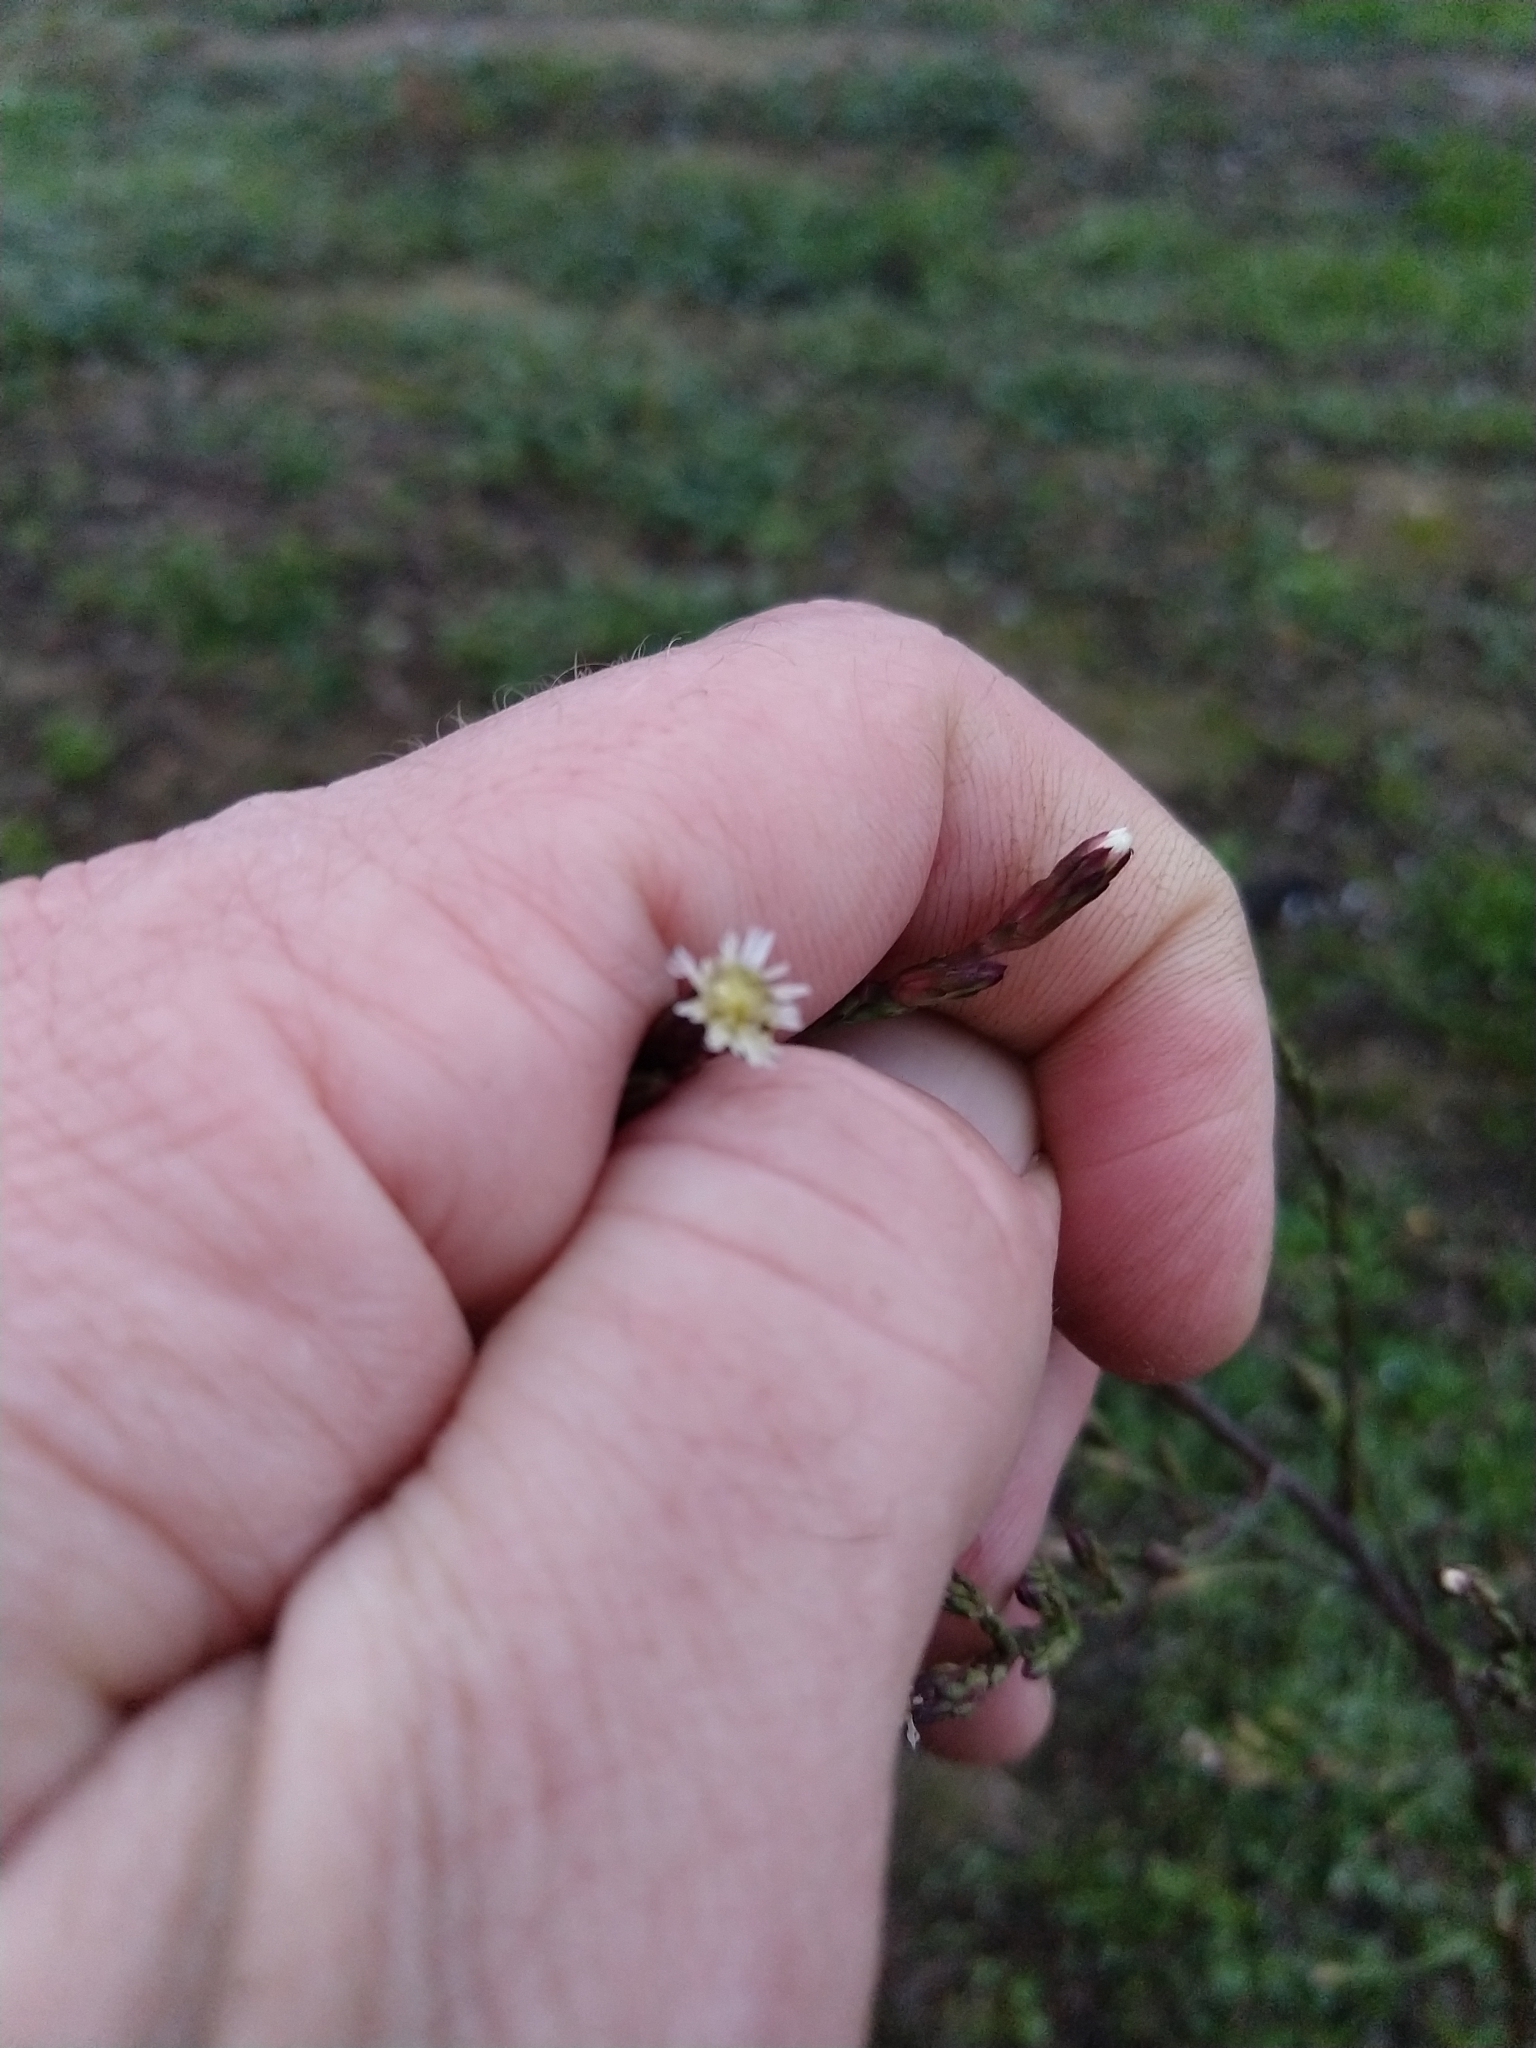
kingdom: Plantae
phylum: Tracheophyta
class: Magnoliopsida
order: Asterales
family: Asteraceae
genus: Symphyotrichum
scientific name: Symphyotrichum subulatum
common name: Annual saltmarsh aster
